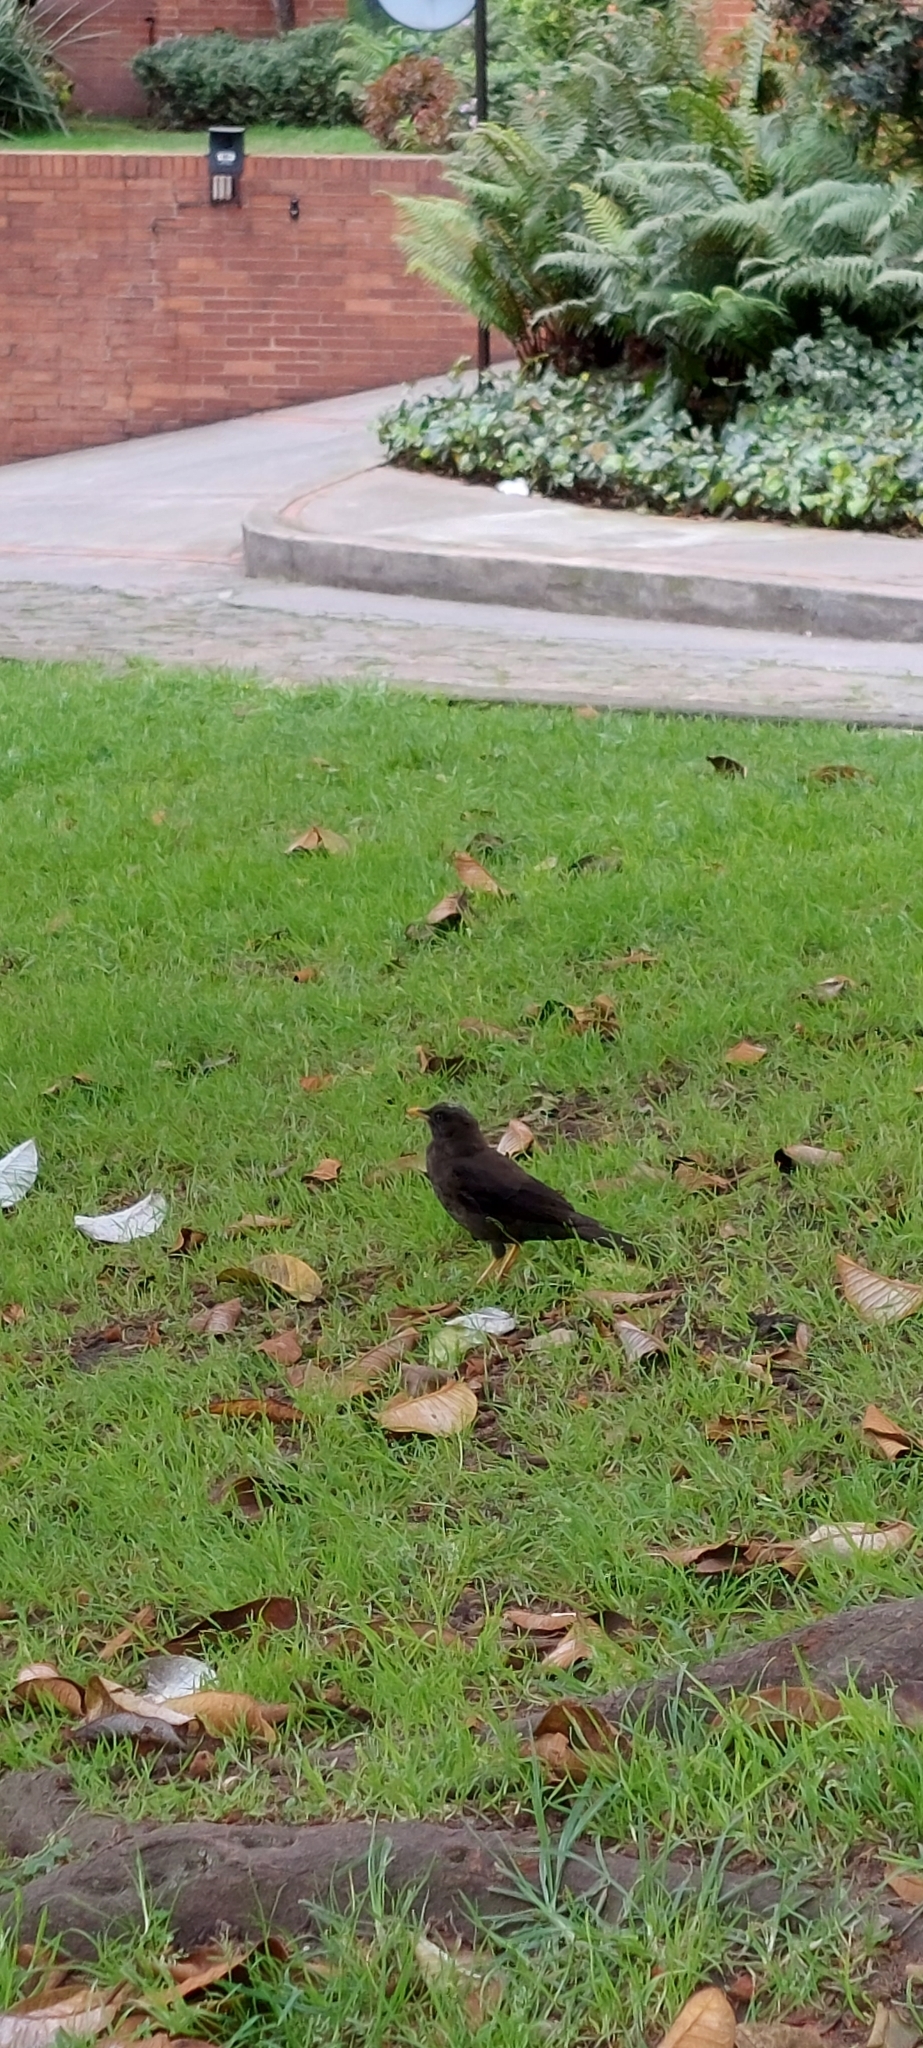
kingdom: Animalia
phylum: Chordata
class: Aves
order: Passeriformes
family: Turdidae
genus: Turdus
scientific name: Turdus fuscater
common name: Great thrush
